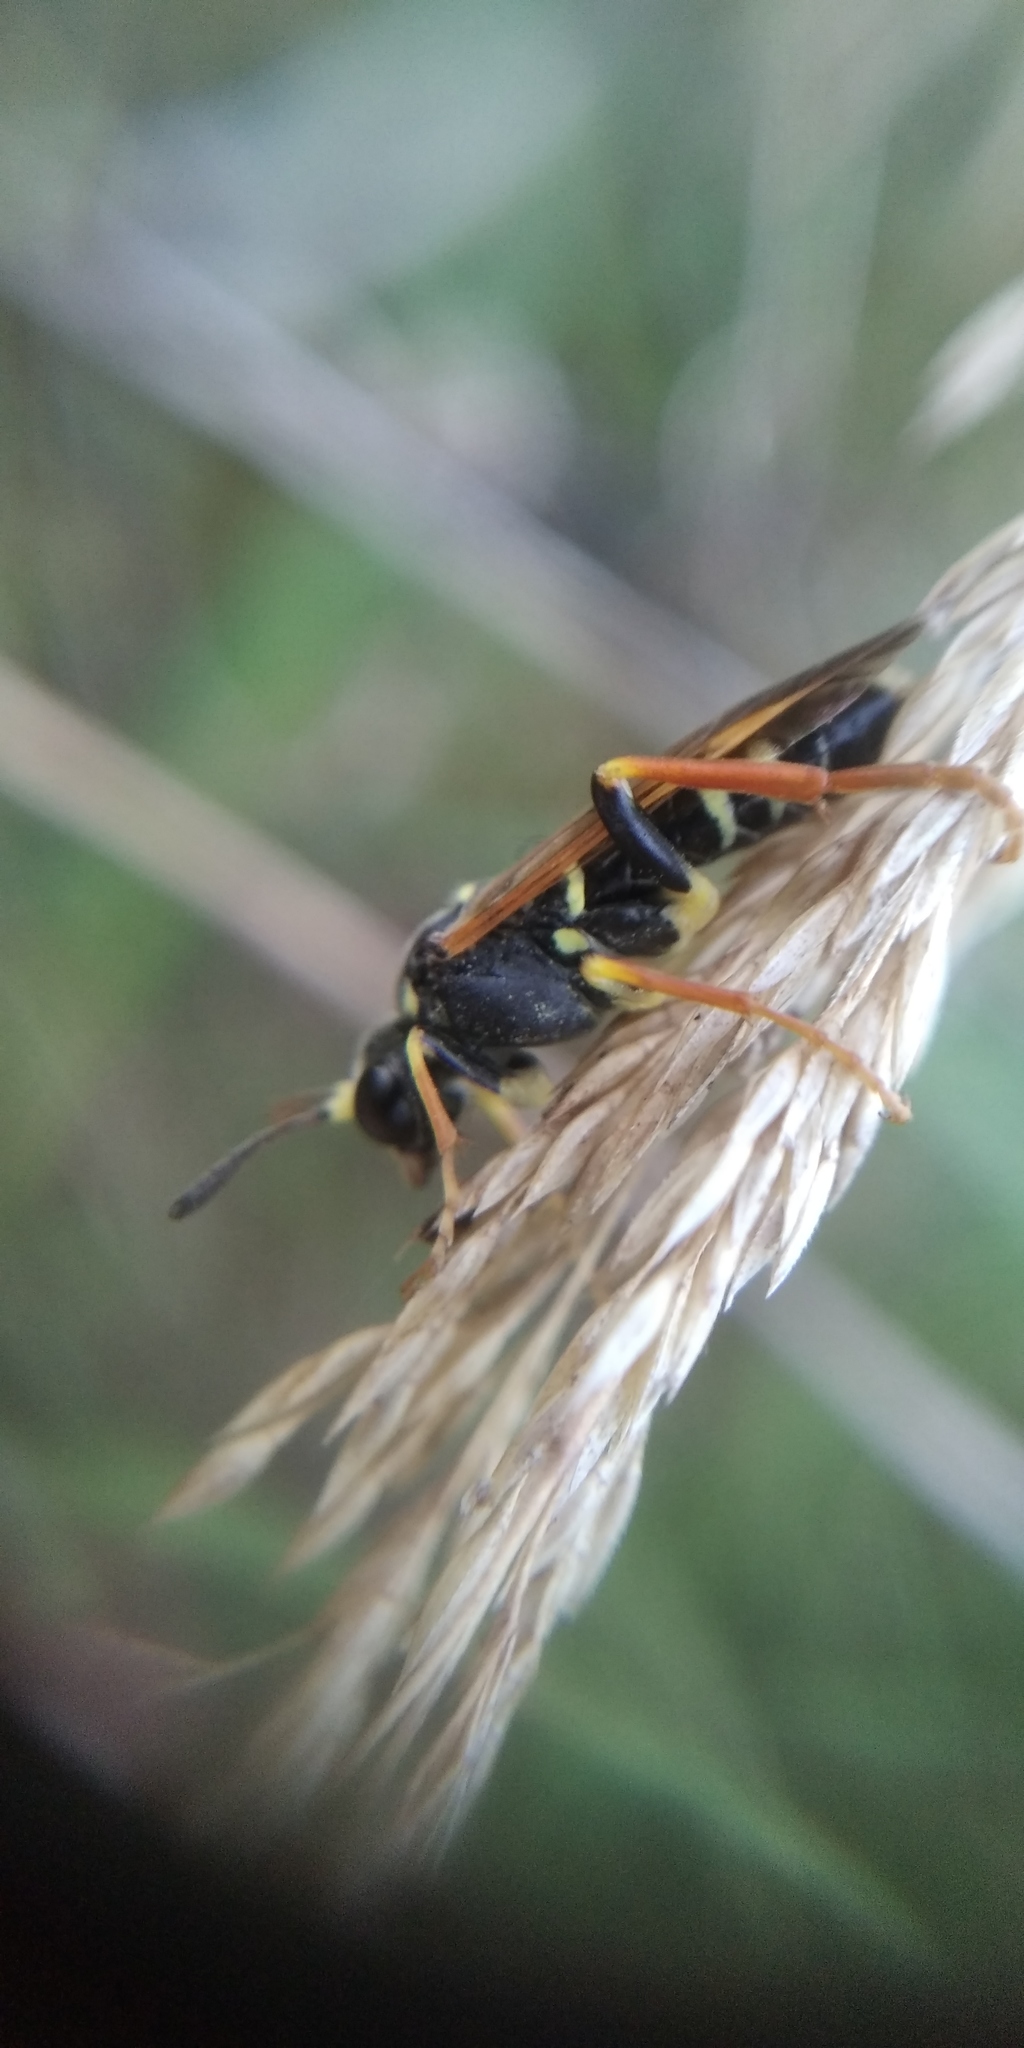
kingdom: Animalia
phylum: Arthropoda
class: Insecta
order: Hymenoptera
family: Tenthredinidae
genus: Tenthredo
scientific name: Tenthredo omissa
